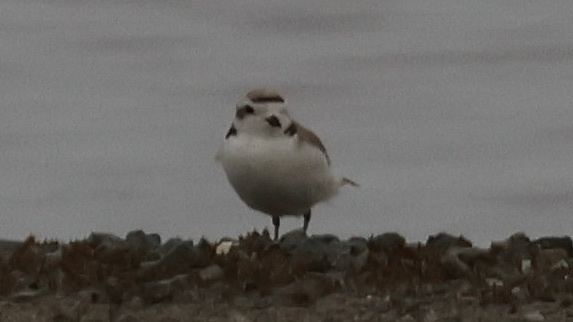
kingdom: Animalia
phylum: Chordata
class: Aves
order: Charadriiformes
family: Charadriidae
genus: Anarhynchus
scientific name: Anarhynchus
